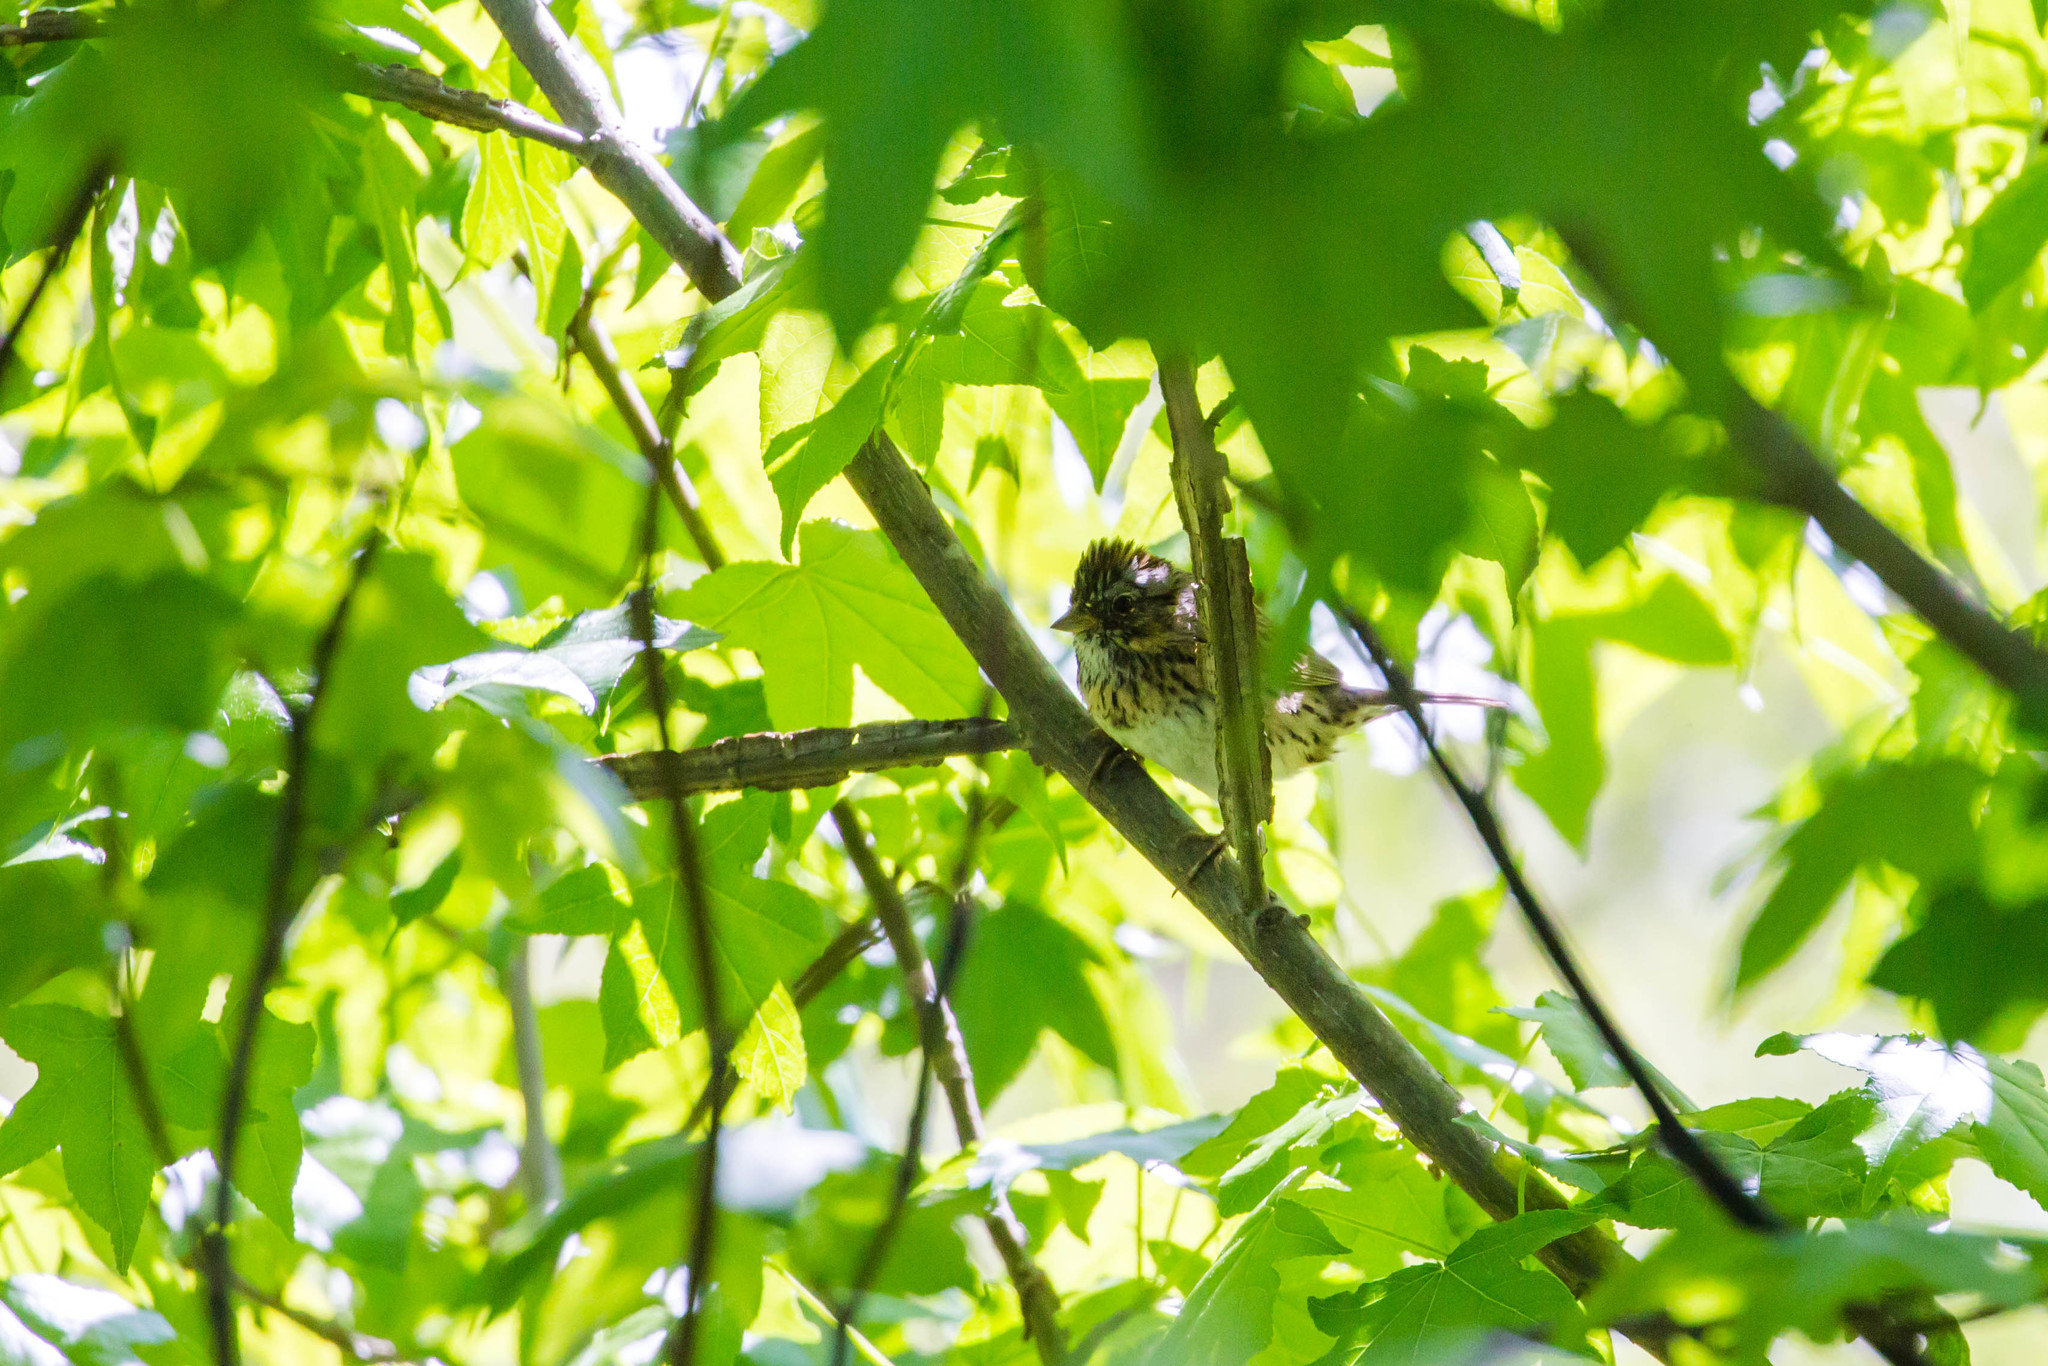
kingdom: Animalia
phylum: Chordata
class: Aves
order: Passeriformes
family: Passerellidae
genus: Melospiza
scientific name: Melospiza lincolnii
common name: Lincoln's sparrow
